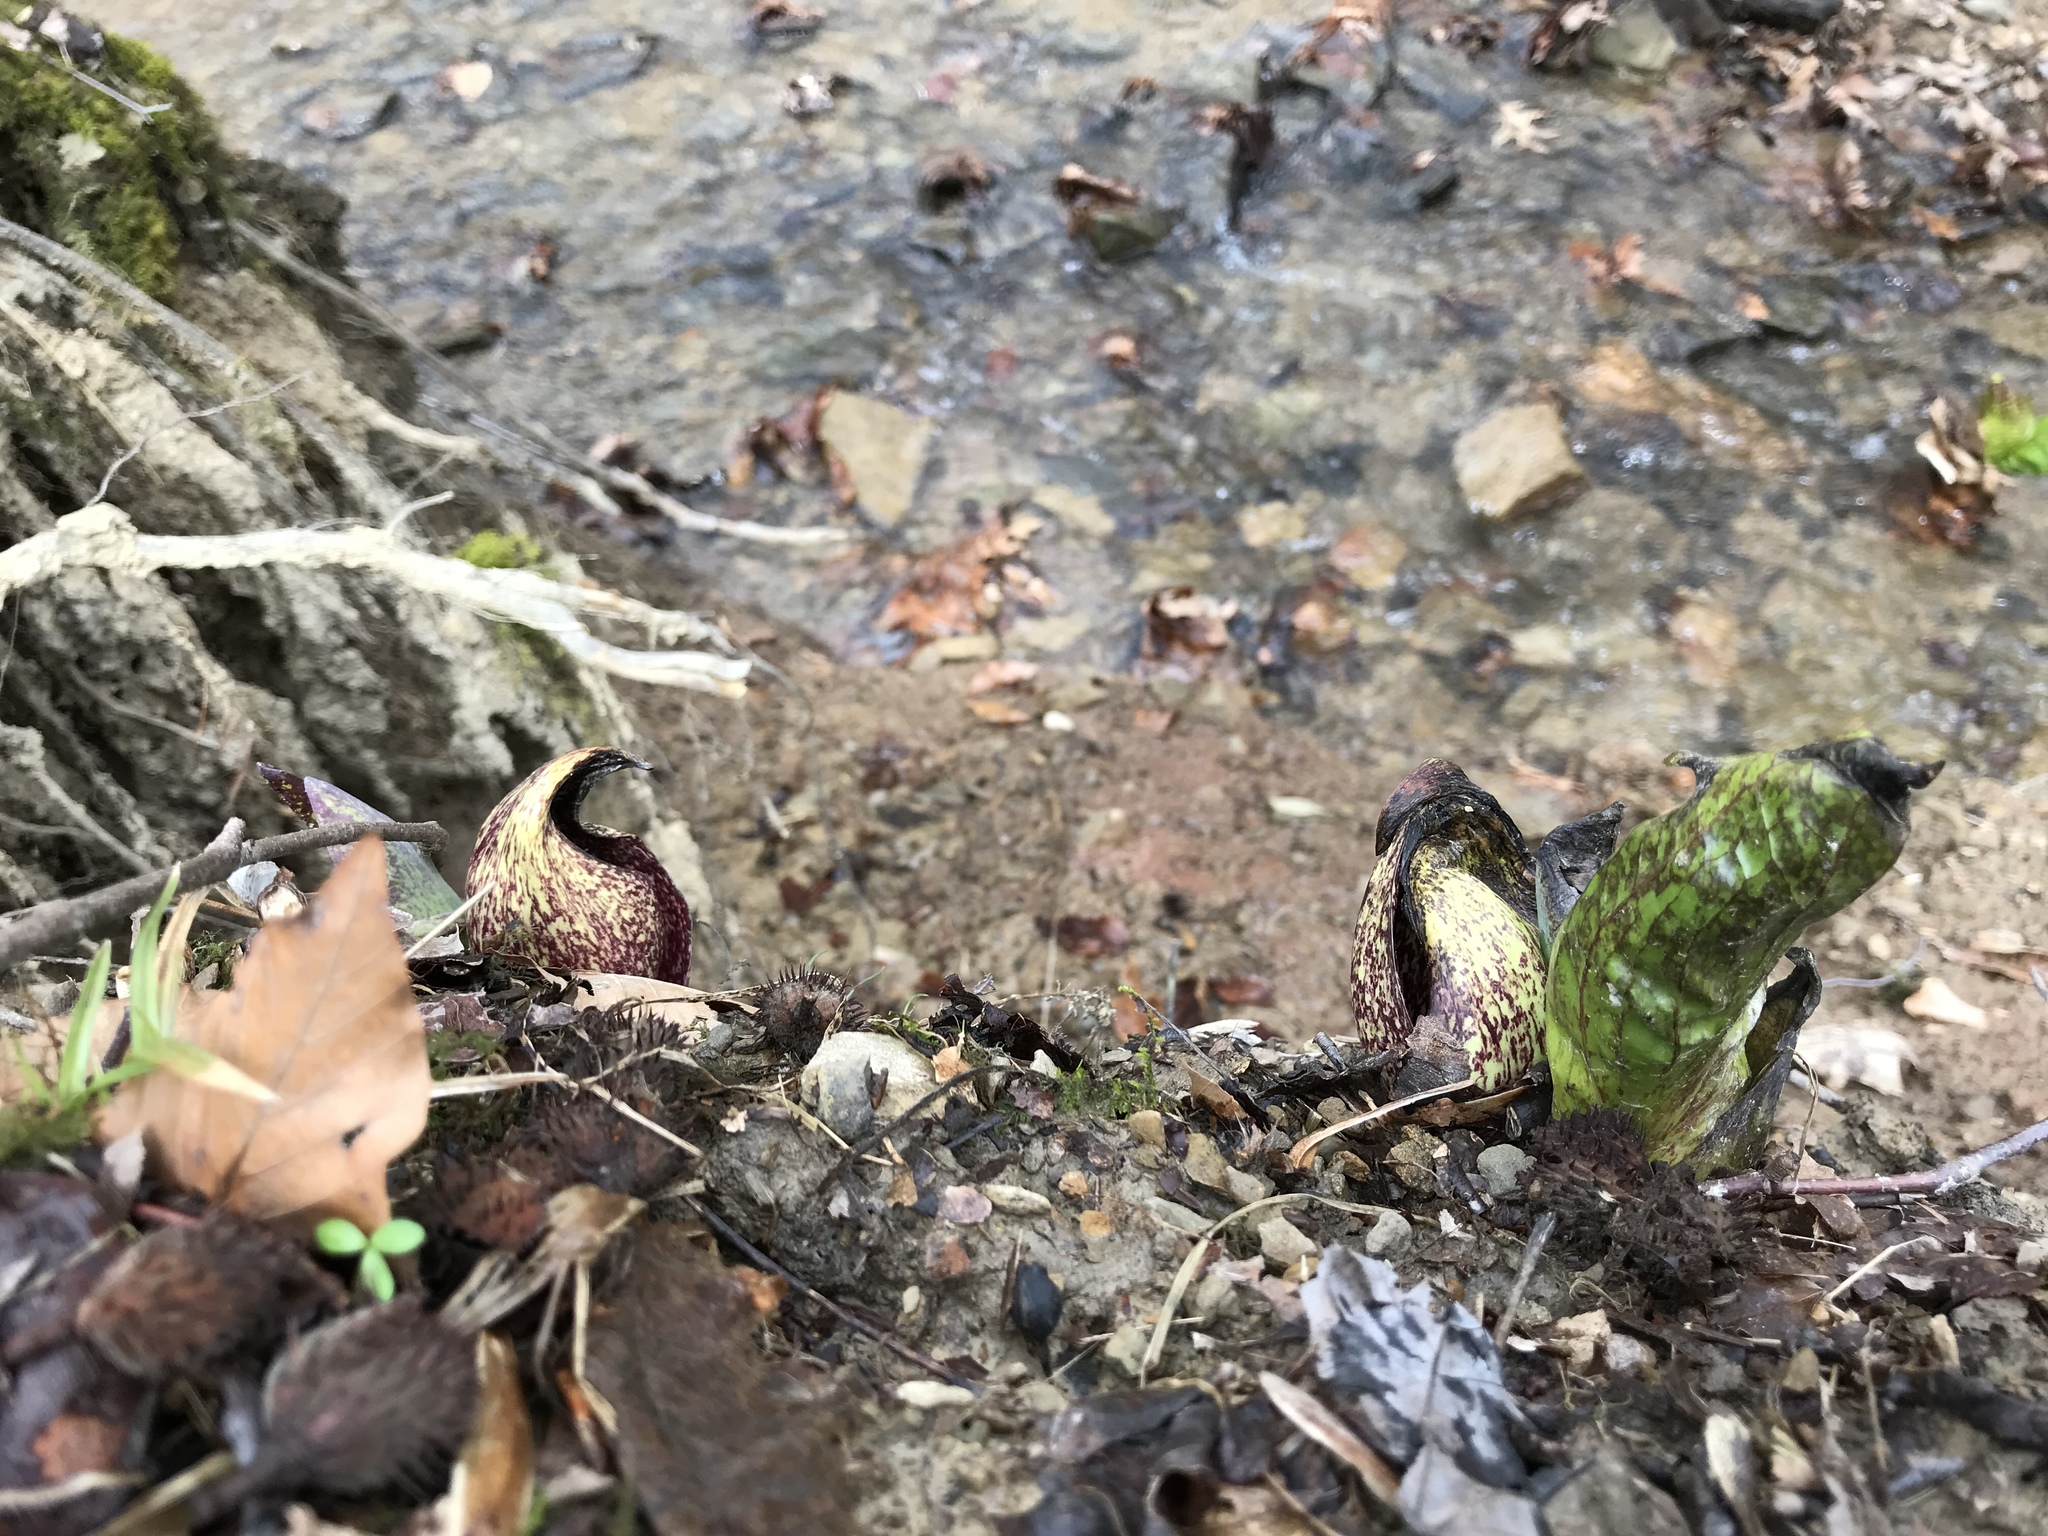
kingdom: Plantae
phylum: Tracheophyta
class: Liliopsida
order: Alismatales
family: Araceae
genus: Symplocarpus
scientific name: Symplocarpus foetidus
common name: Eastern skunk cabbage
